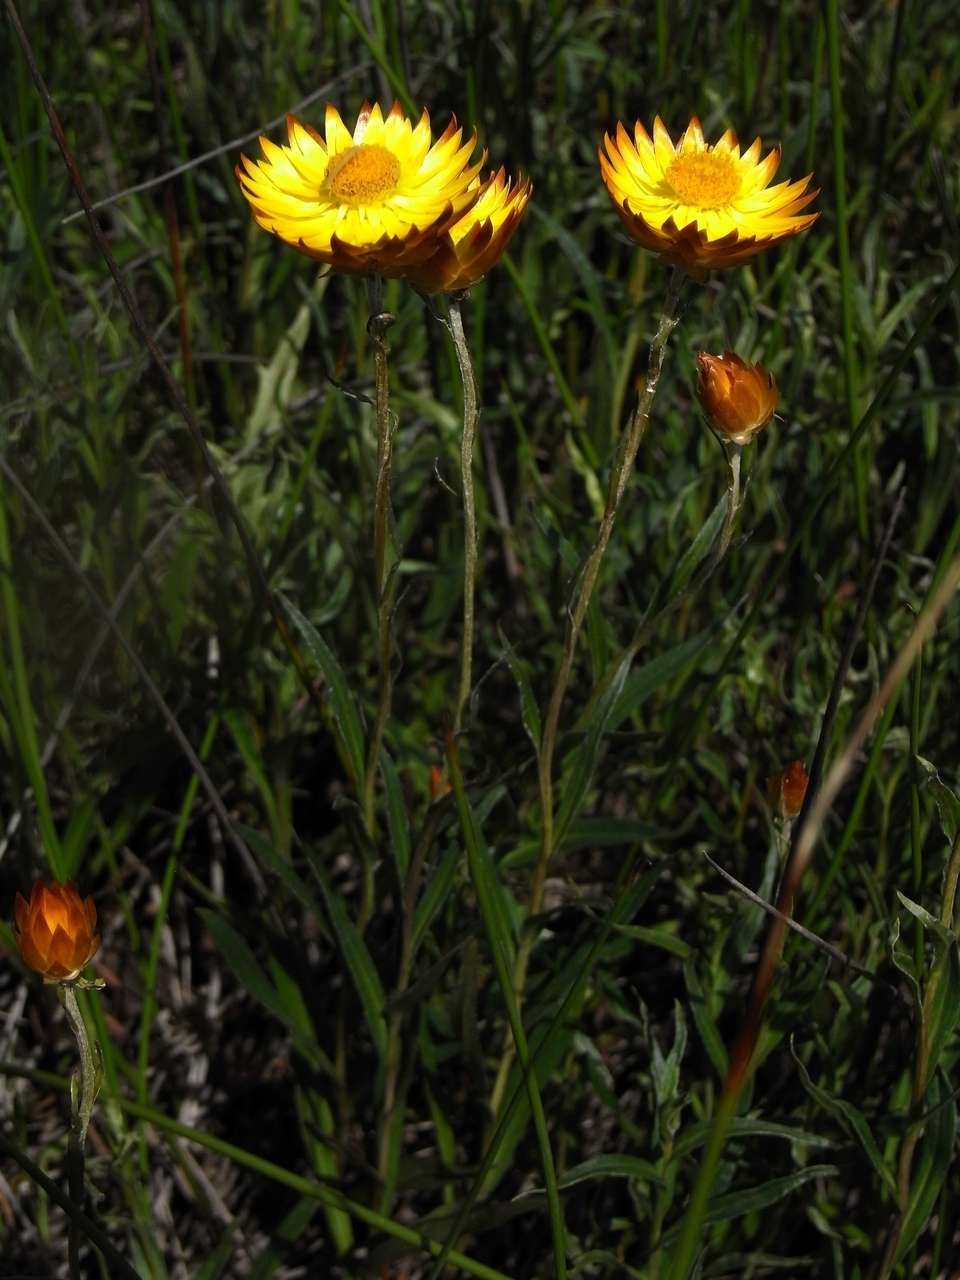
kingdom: Plantae
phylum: Tracheophyta
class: Magnoliopsida
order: Asterales
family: Asteraceae
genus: Xerochrysum
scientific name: Xerochrysum palustre
